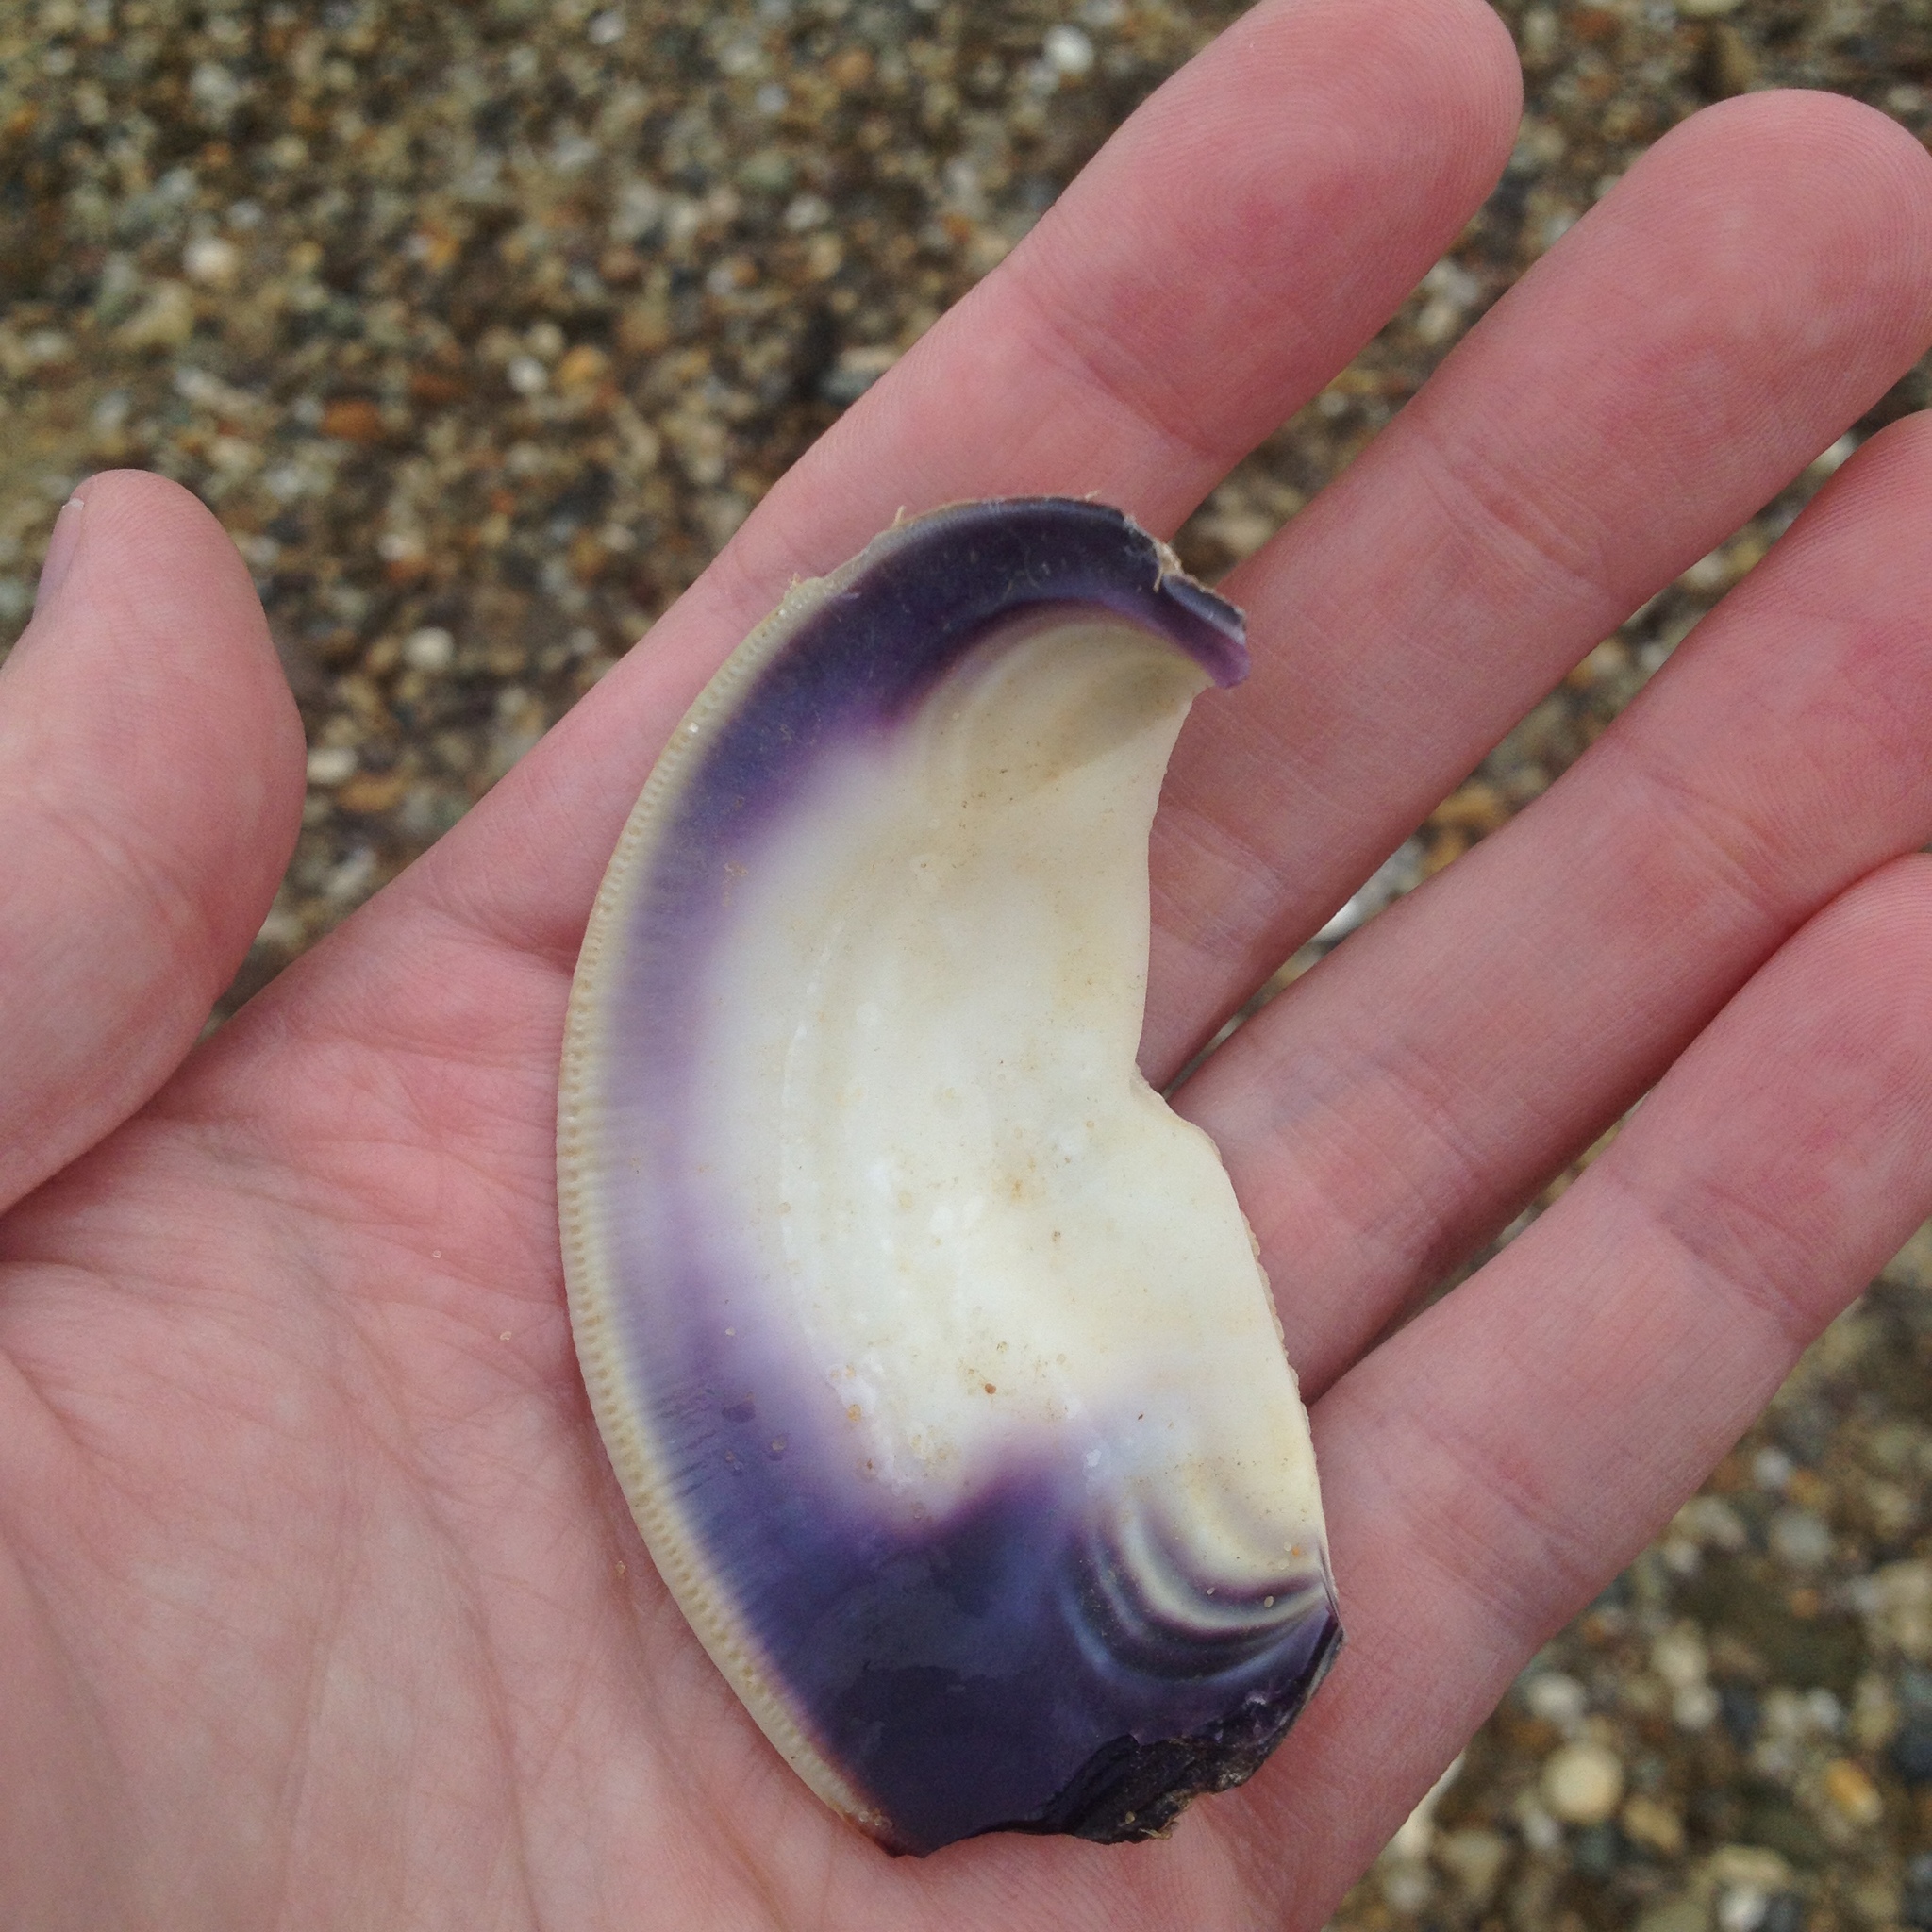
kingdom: Animalia
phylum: Mollusca
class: Bivalvia
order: Venerida
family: Veneridae
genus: Mercenaria
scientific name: Mercenaria mercenaria
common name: American hard-shelled clam
